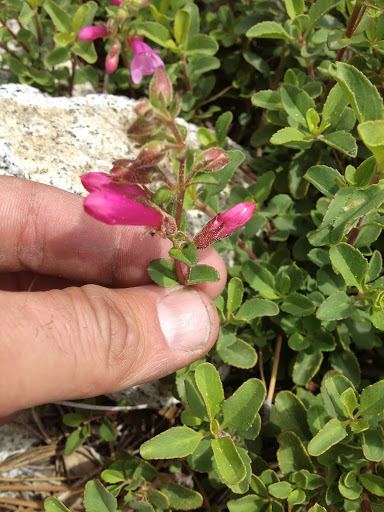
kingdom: Plantae
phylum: Tracheophyta
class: Magnoliopsida
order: Lamiales
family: Plantaginaceae
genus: Penstemon
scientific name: Penstemon newberryi
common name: Mountain-pride
